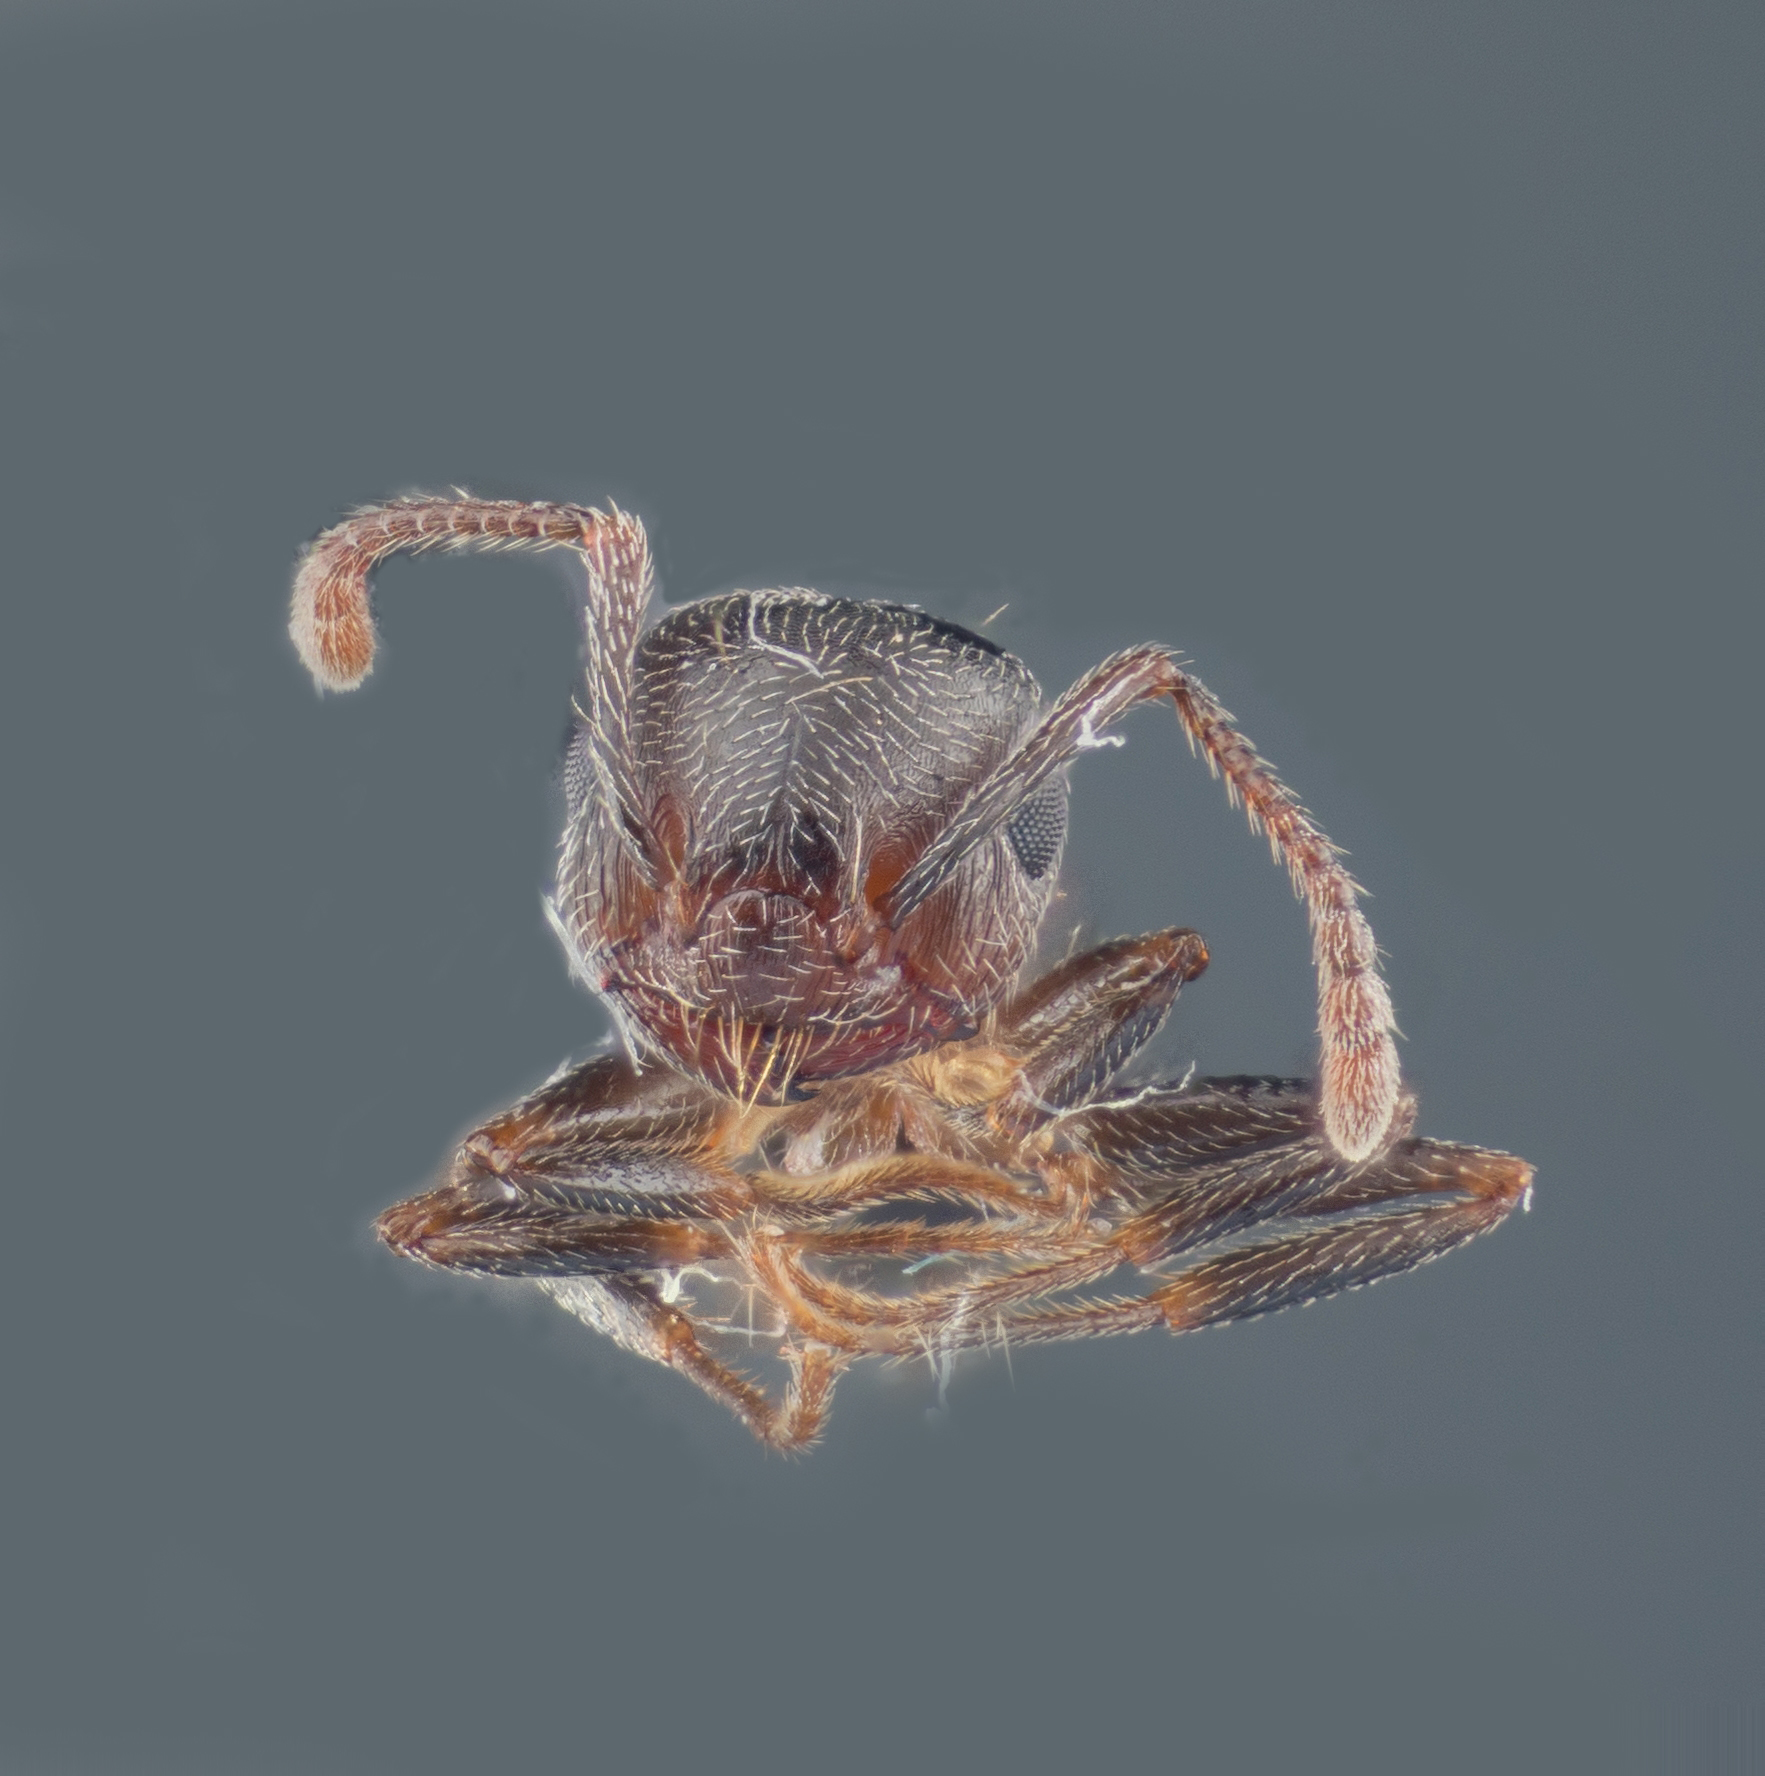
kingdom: Animalia
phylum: Arthropoda
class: Insecta
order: Hymenoptera
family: Formicidae
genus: Crematogaster
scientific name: Crematogaster coarctata
